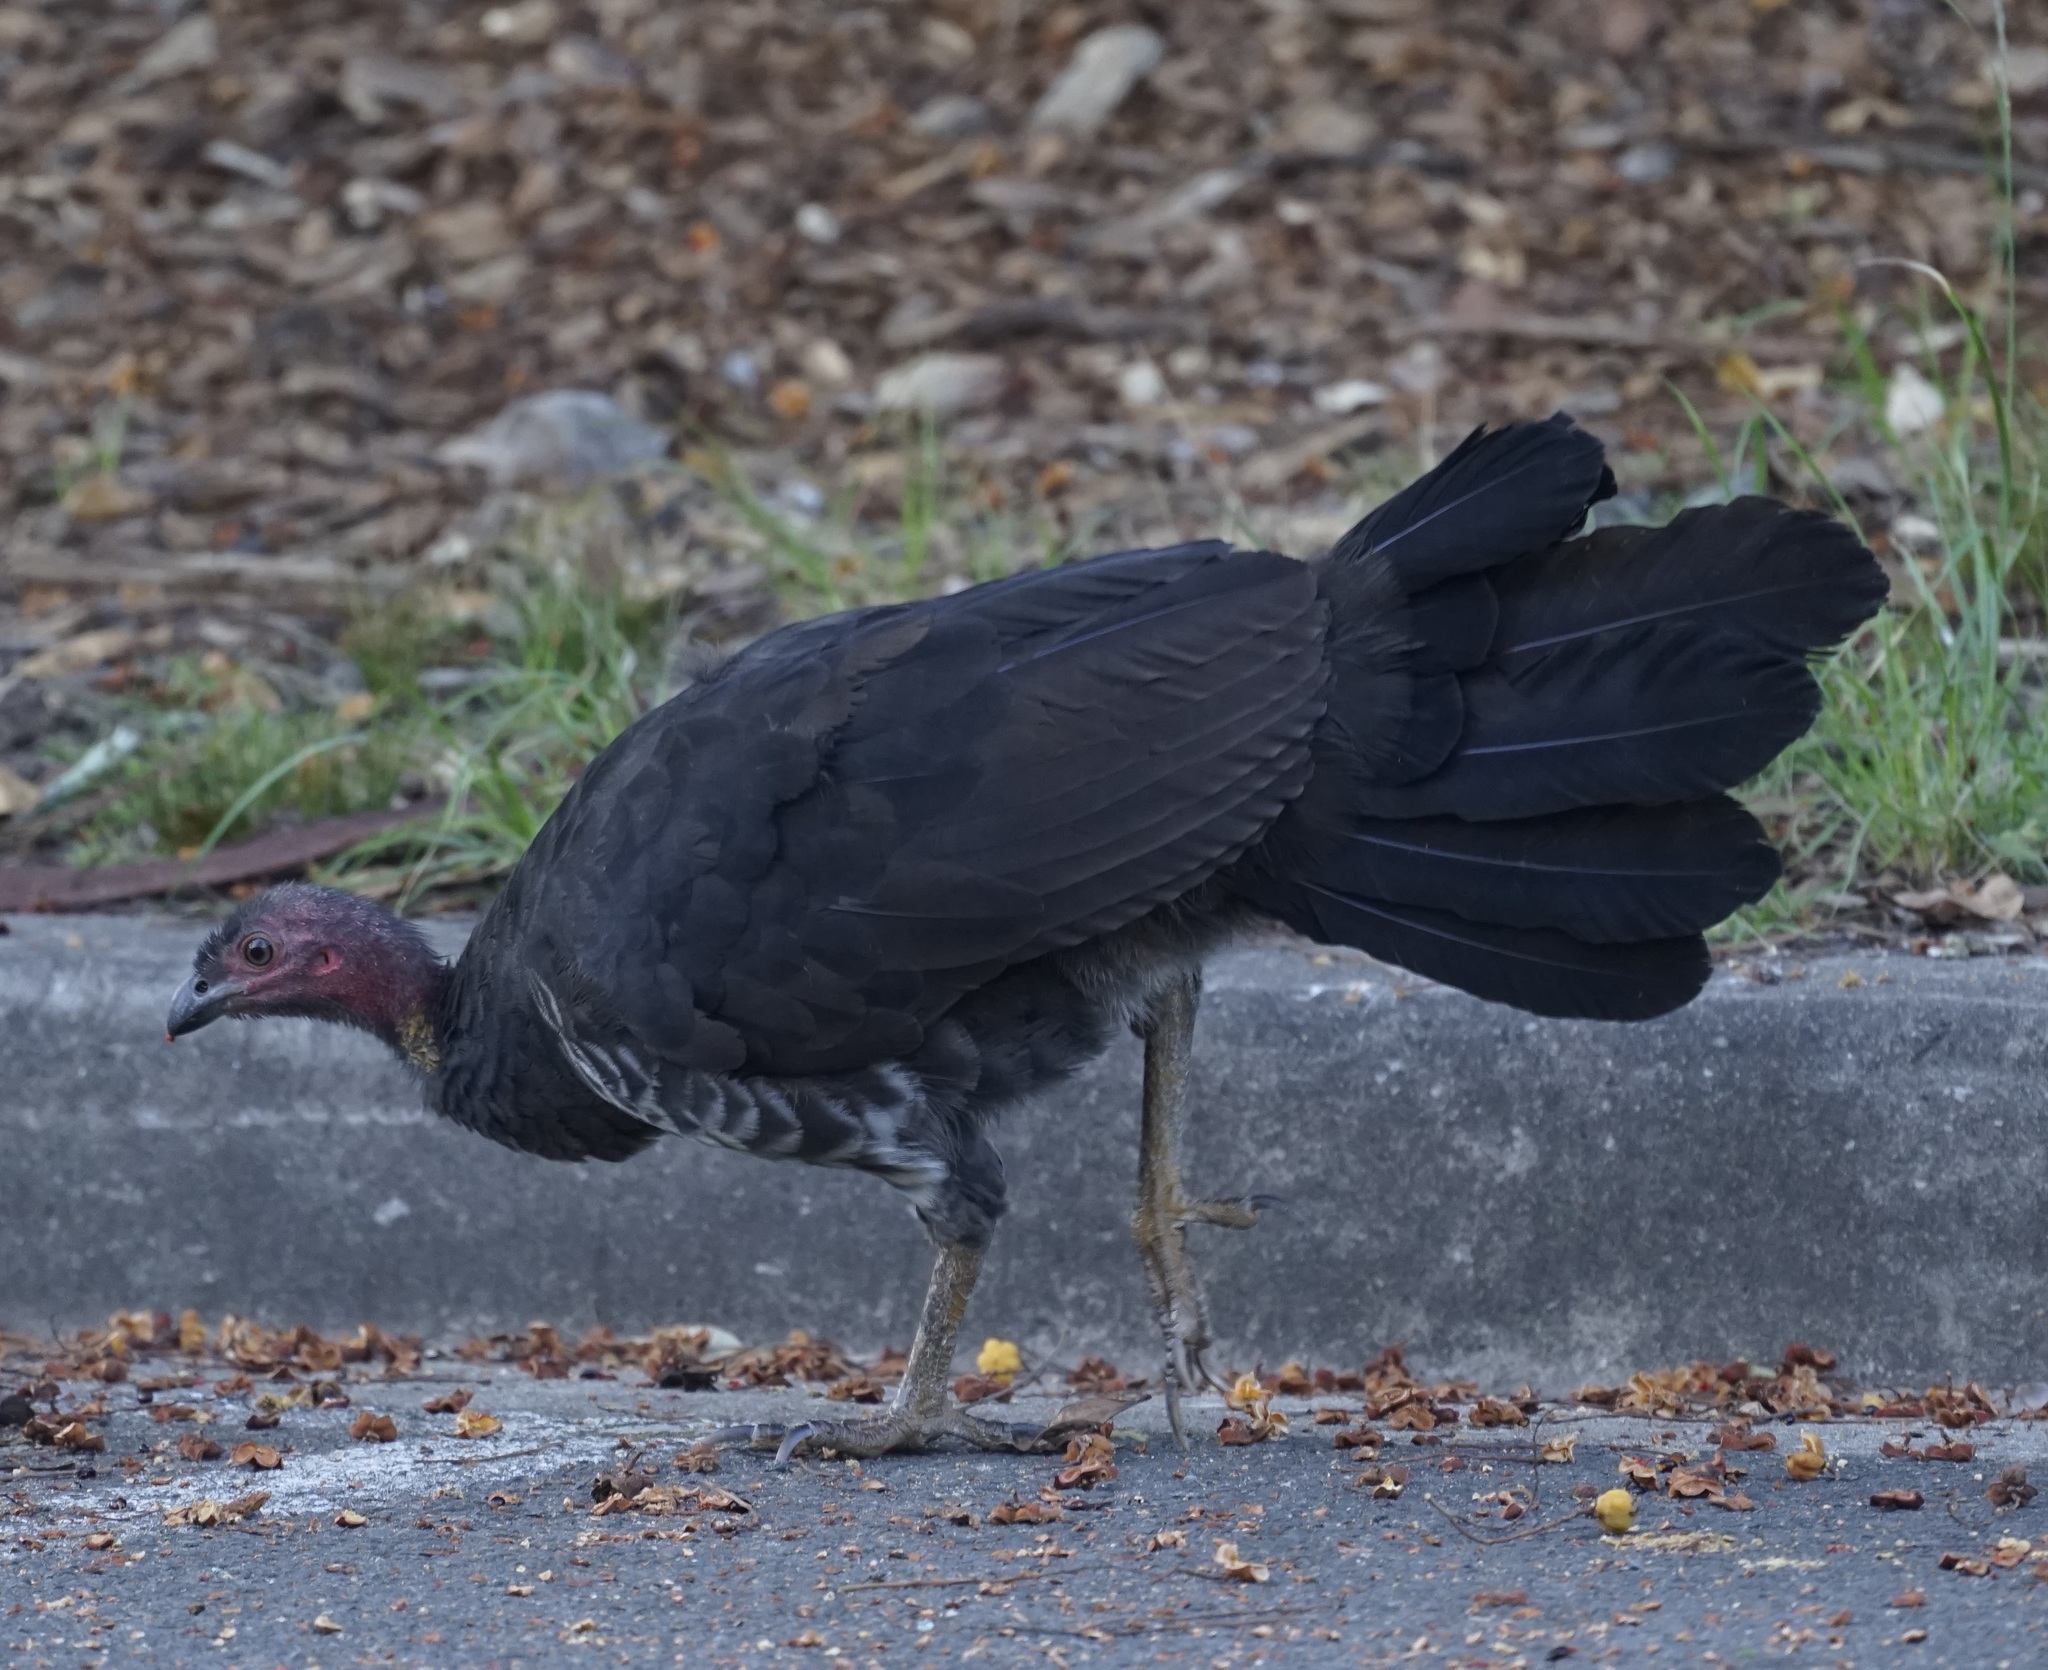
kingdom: Animalia
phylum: Chordata
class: Aves
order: Galliformes
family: Megapodiidae
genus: Alectura
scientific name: Alectura lathami
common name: Australian brushturkey
